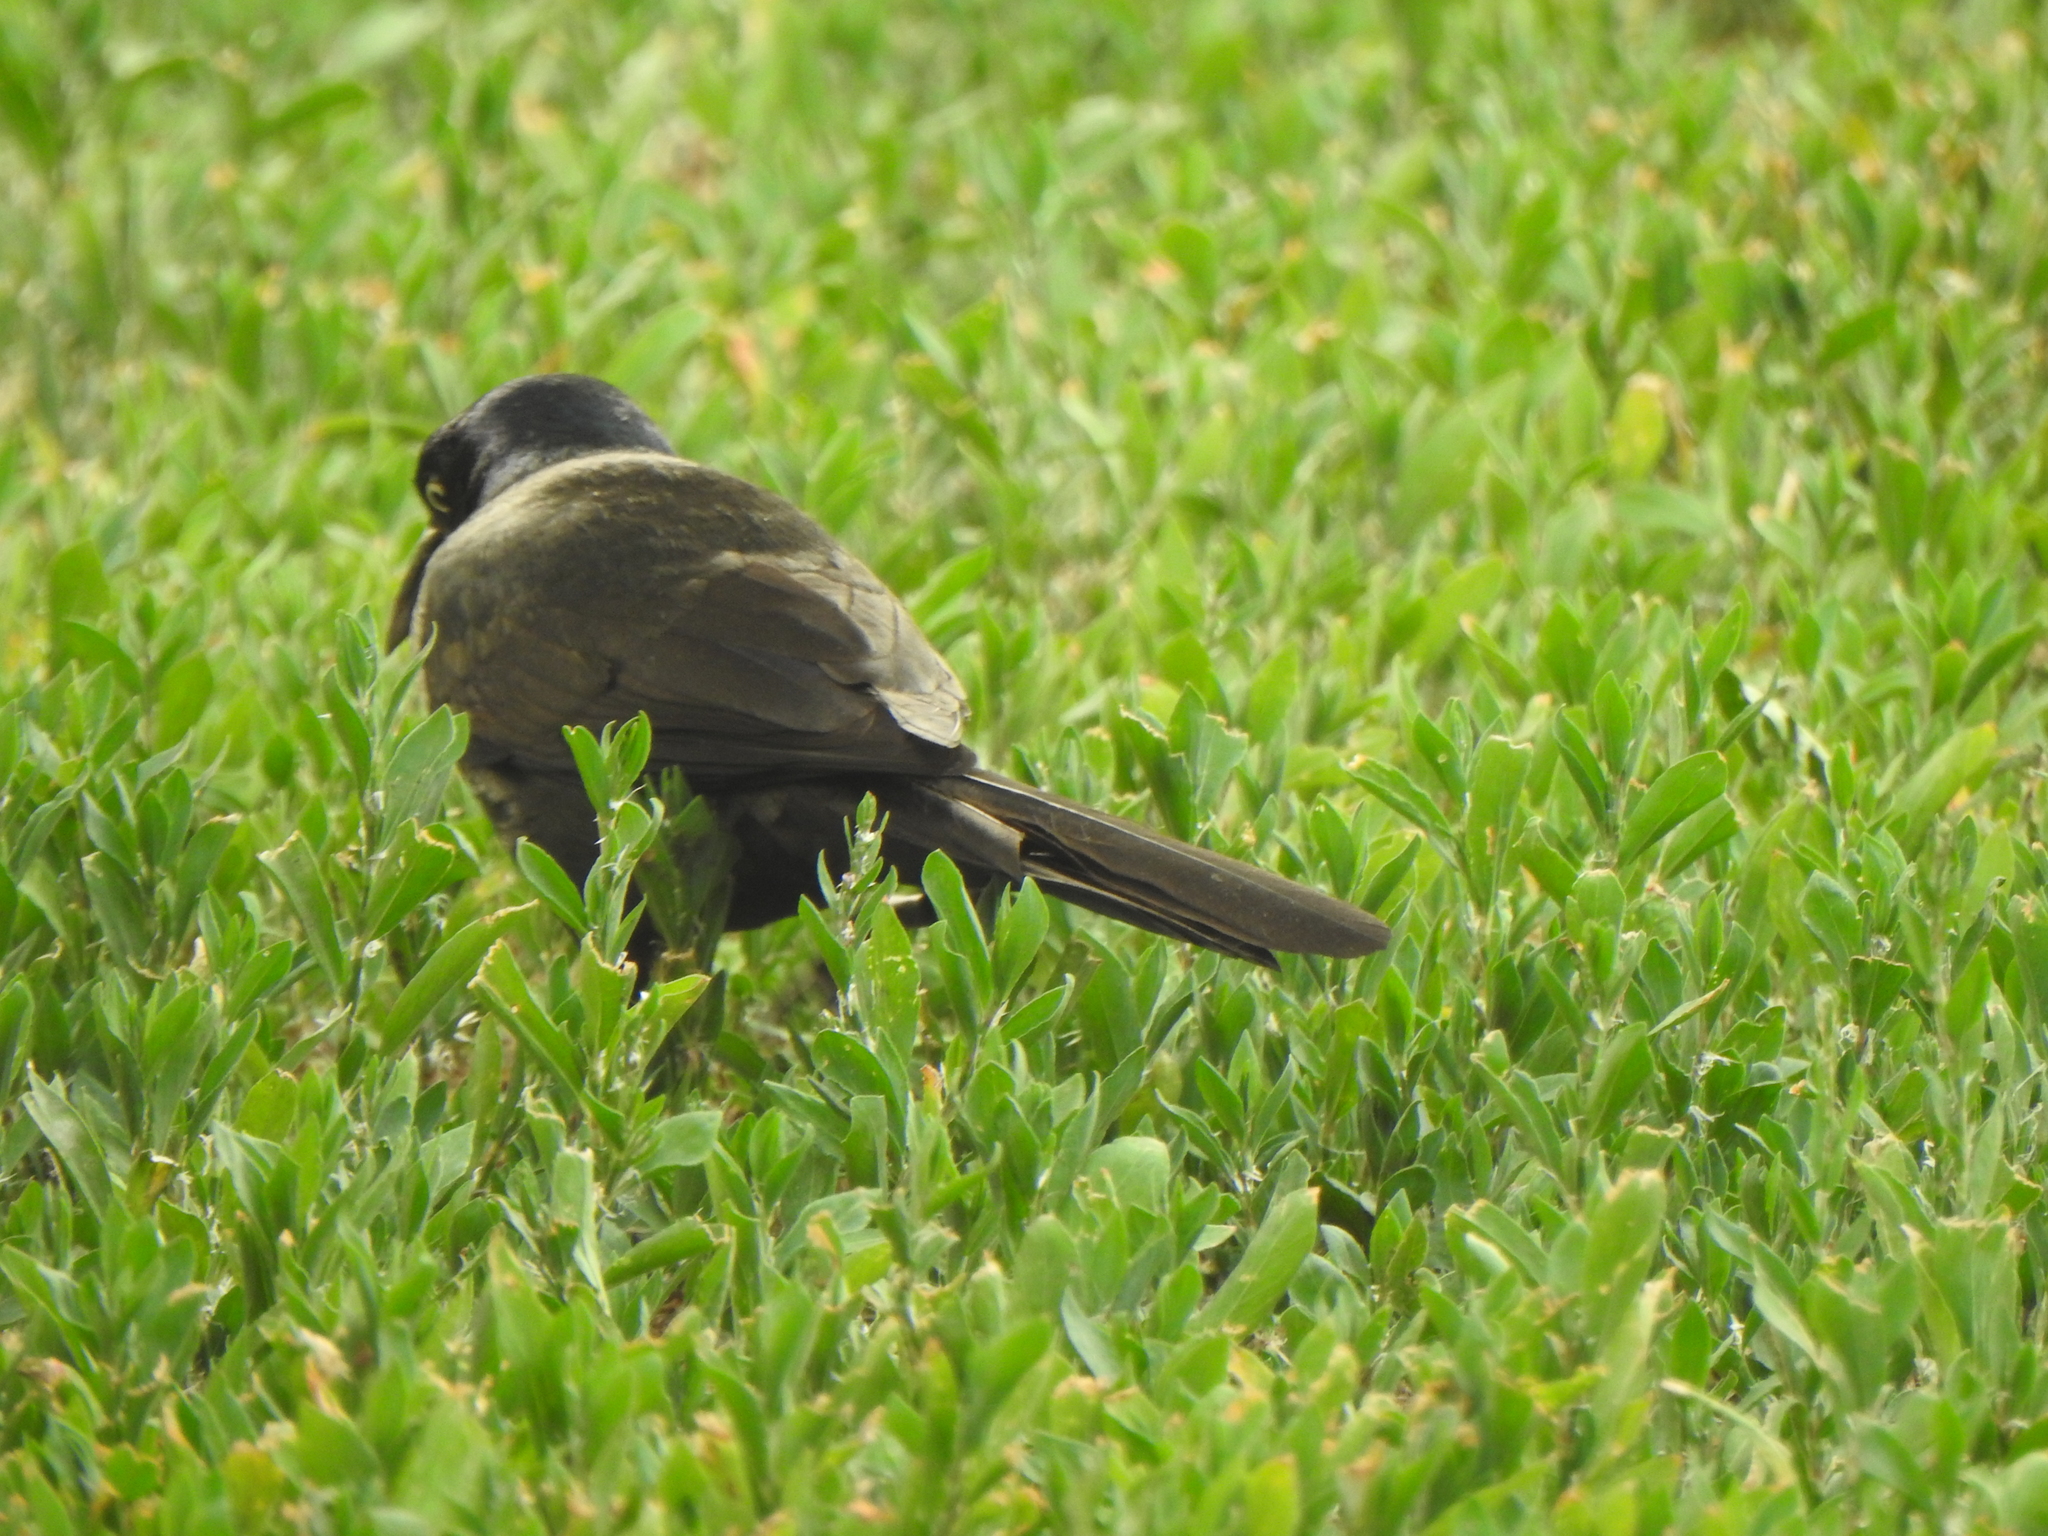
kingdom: Animalia
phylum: Chordata
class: Aves
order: Passeriformes
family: Icteridae
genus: Quiscalus
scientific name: Quiscalus quiscula
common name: Common grackle
